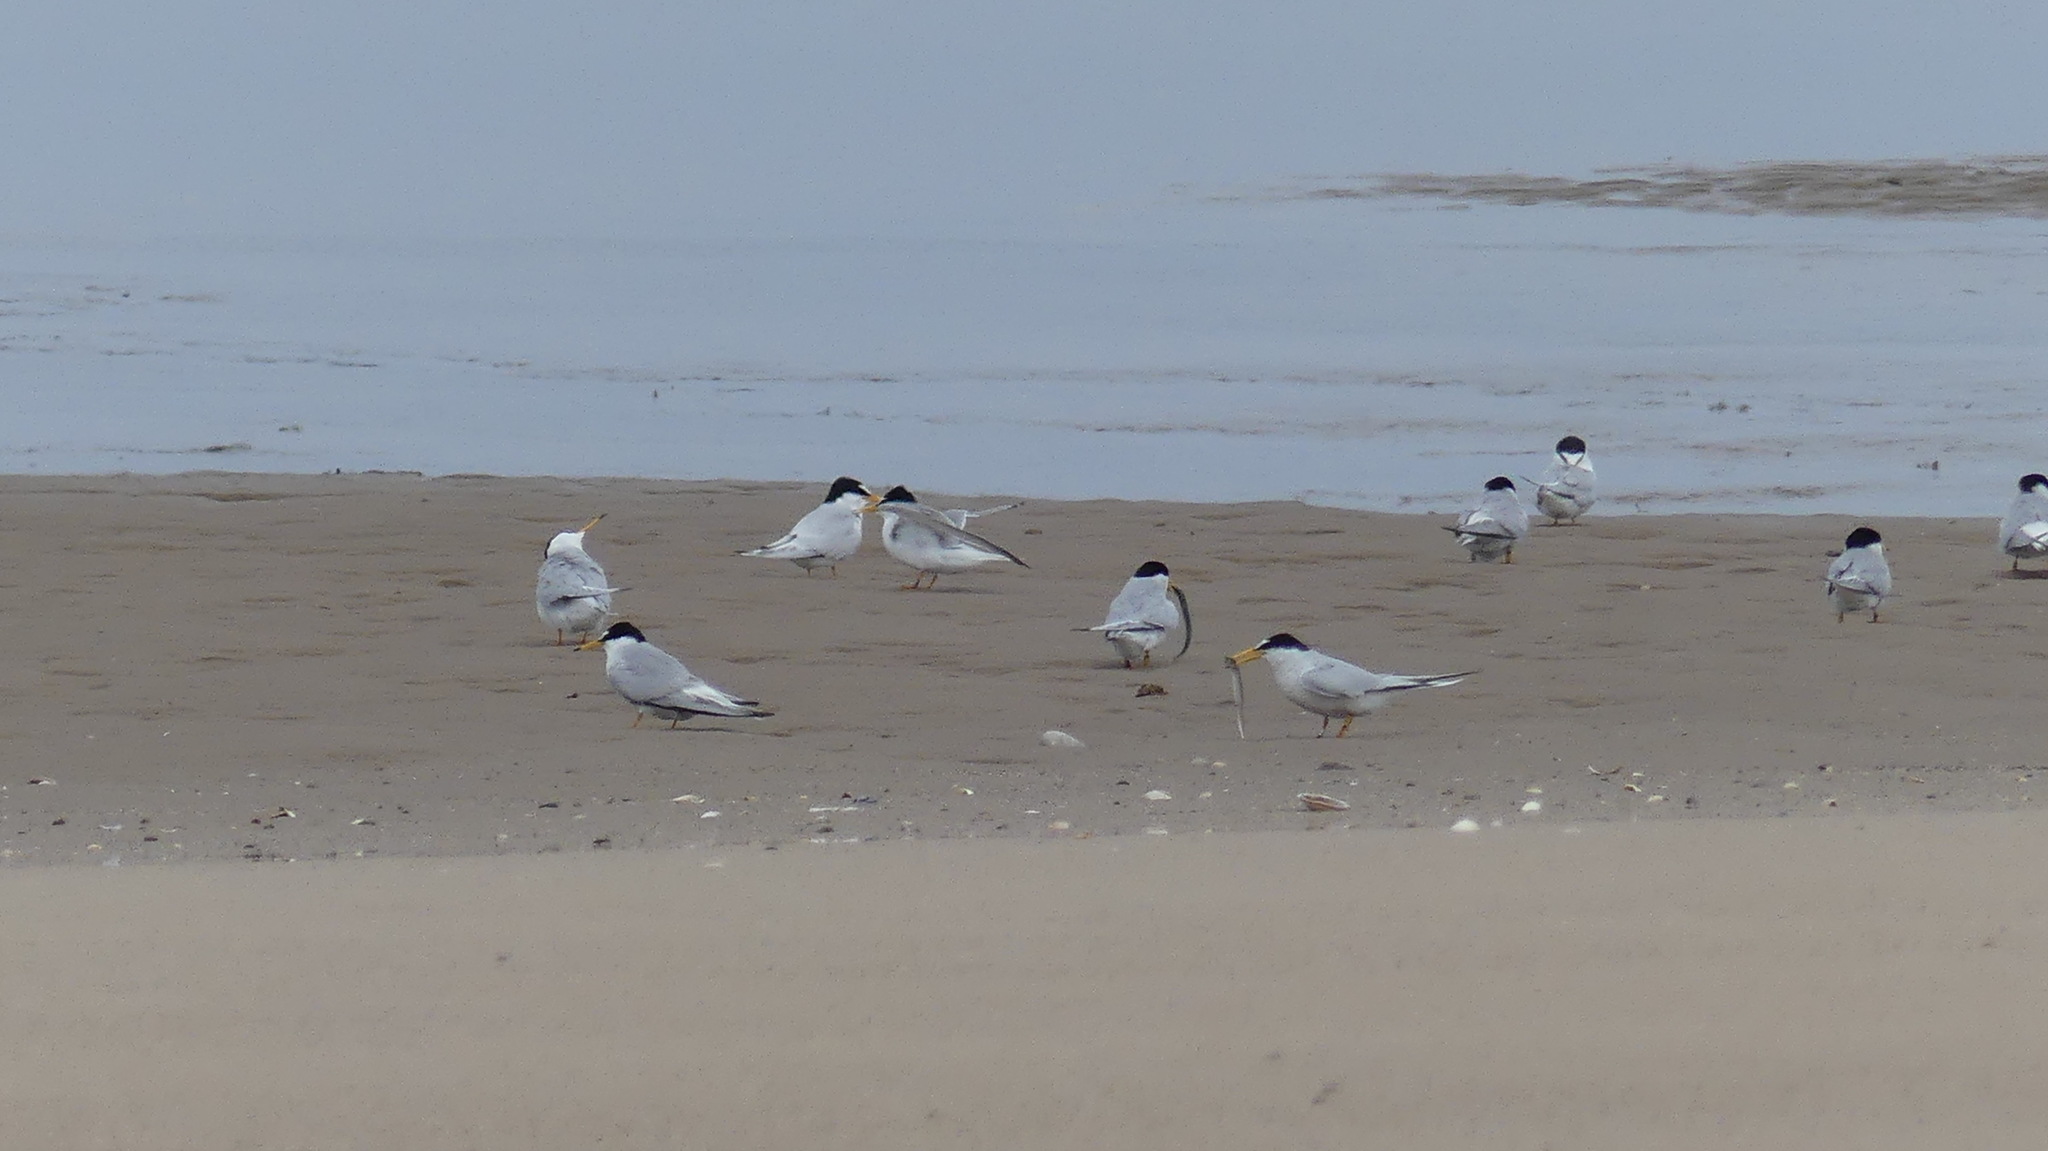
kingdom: Animalia
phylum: Chordata
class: Aves
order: Charadriiformes
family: Laridae
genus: Sternula
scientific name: Sternula albifrons
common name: Little tern
